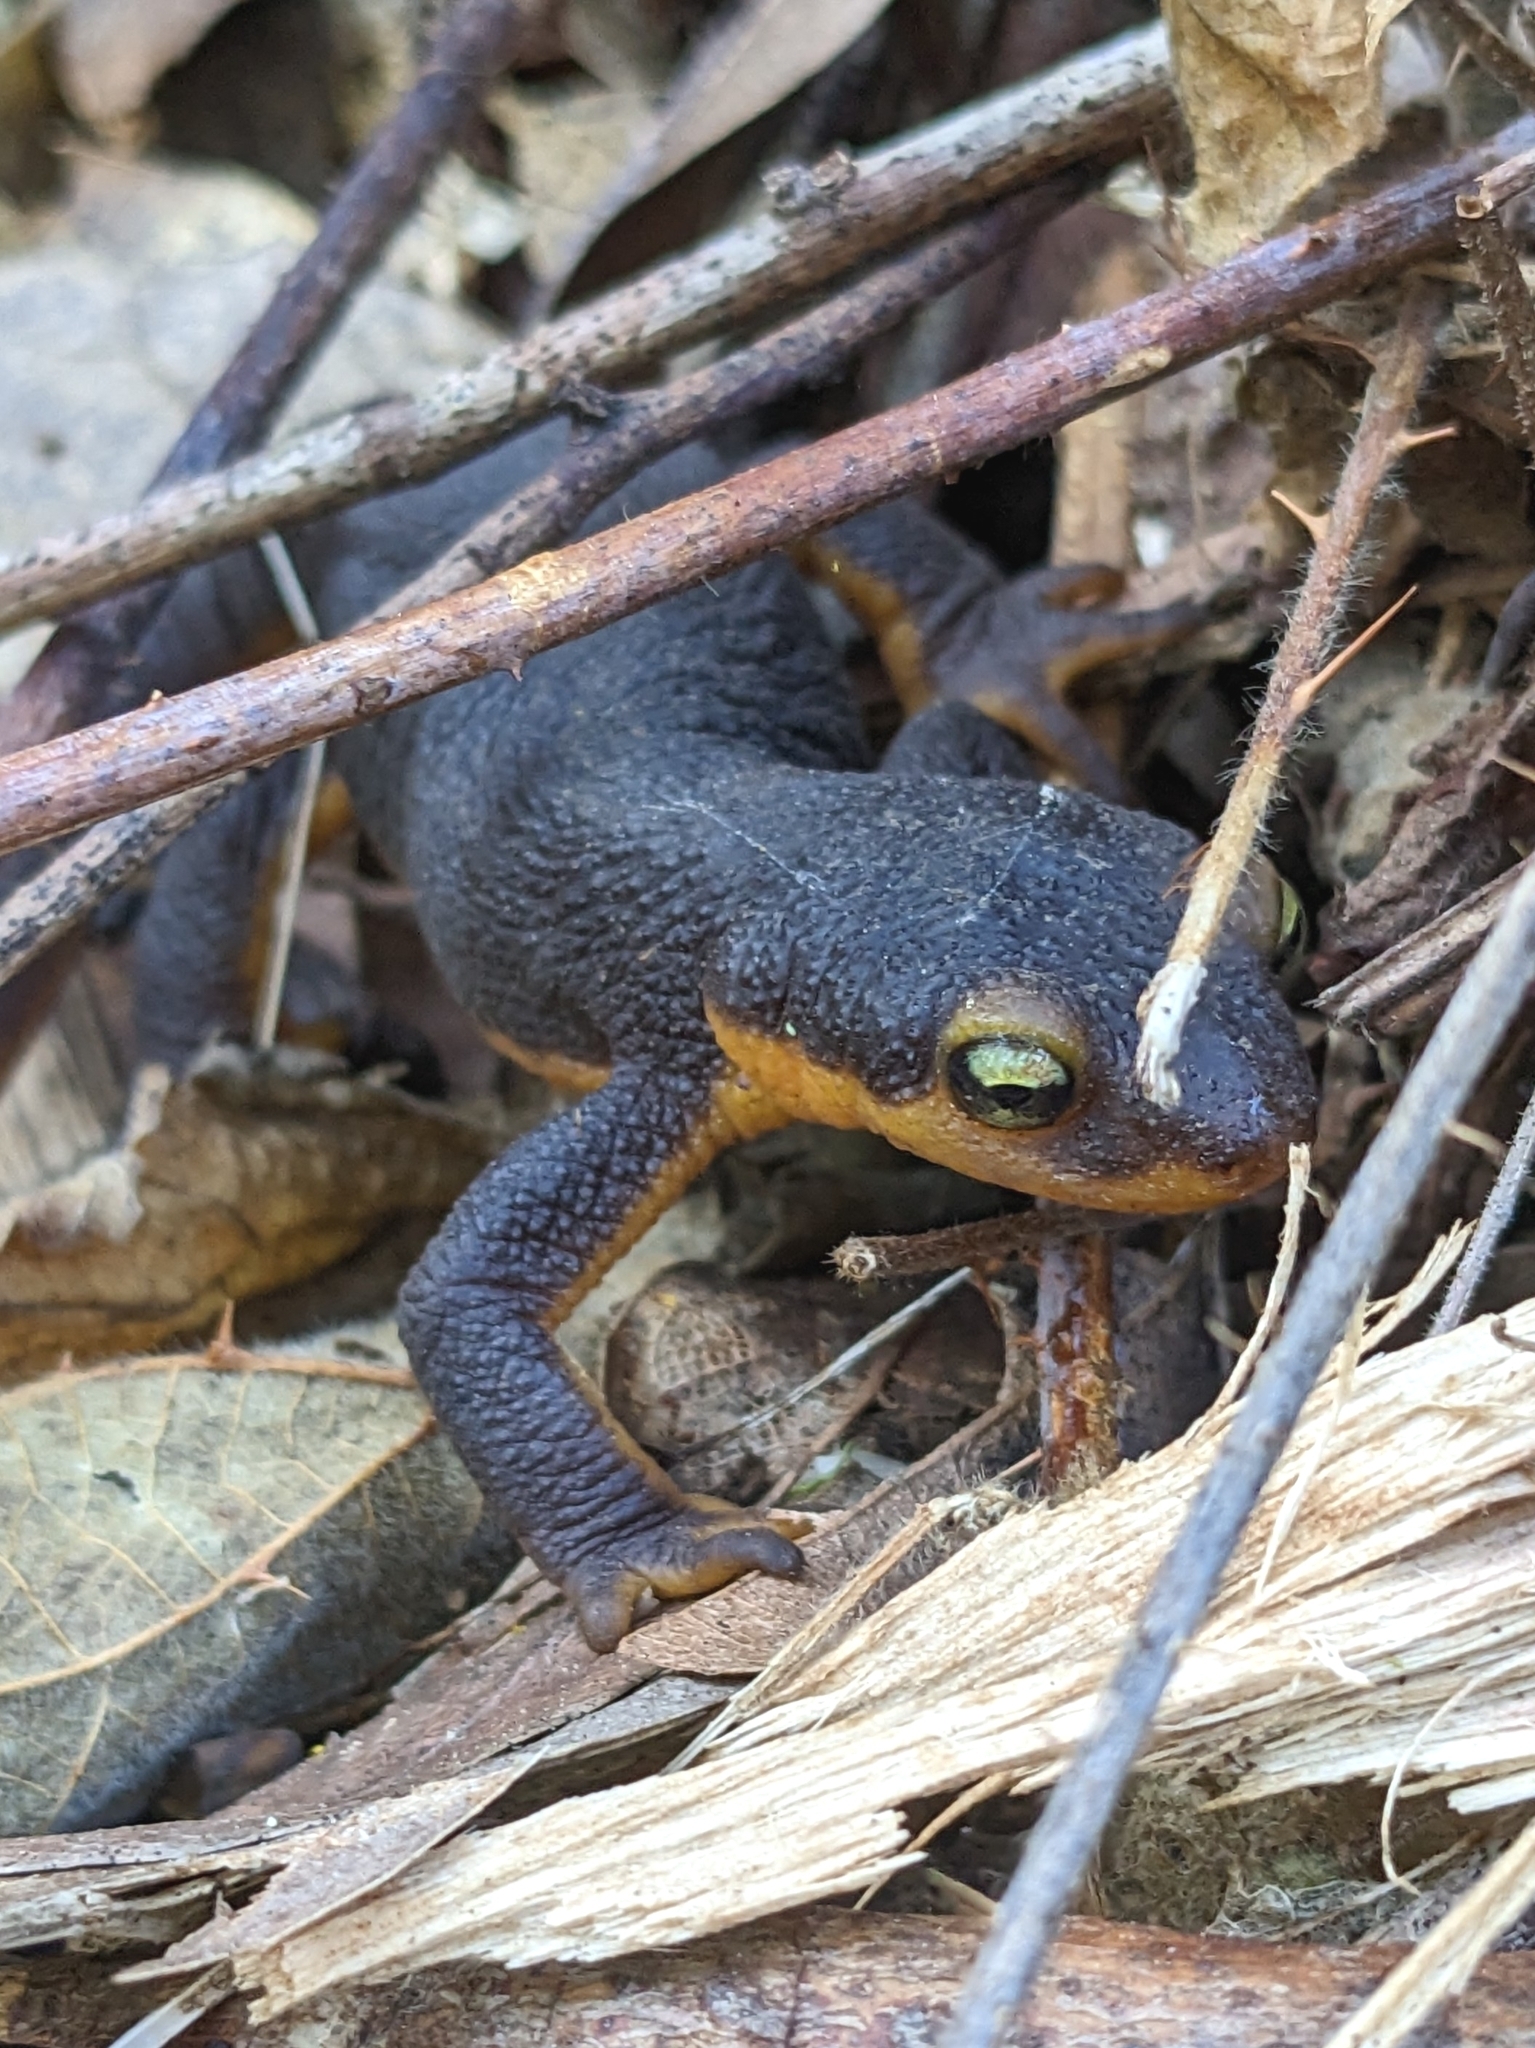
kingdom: Animalia
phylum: Chordata
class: Amphibia
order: Caudata
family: Salamandridae
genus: Taricha
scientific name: Taricha torosa
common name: California newt
